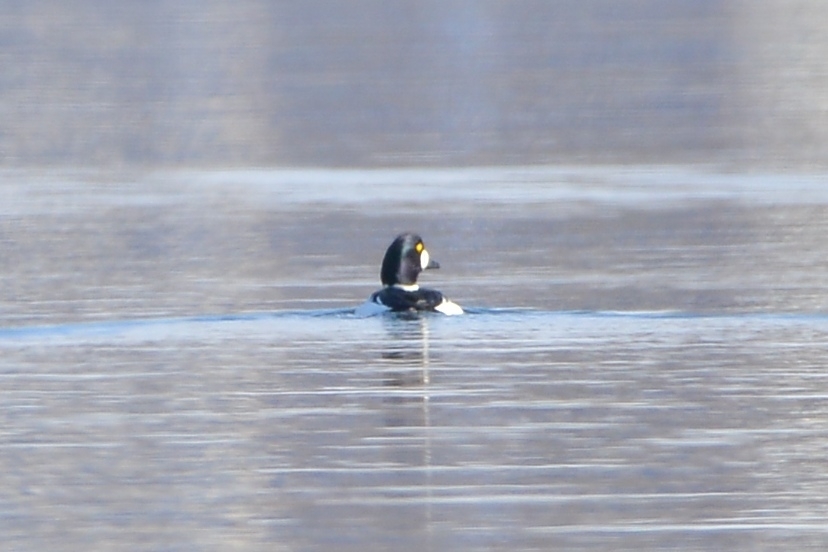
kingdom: Animalia
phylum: Chordata
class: Aves
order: Anseriformes
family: Anatidae
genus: Bucephala
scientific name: Bucephala clangula
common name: Common goldeneye
